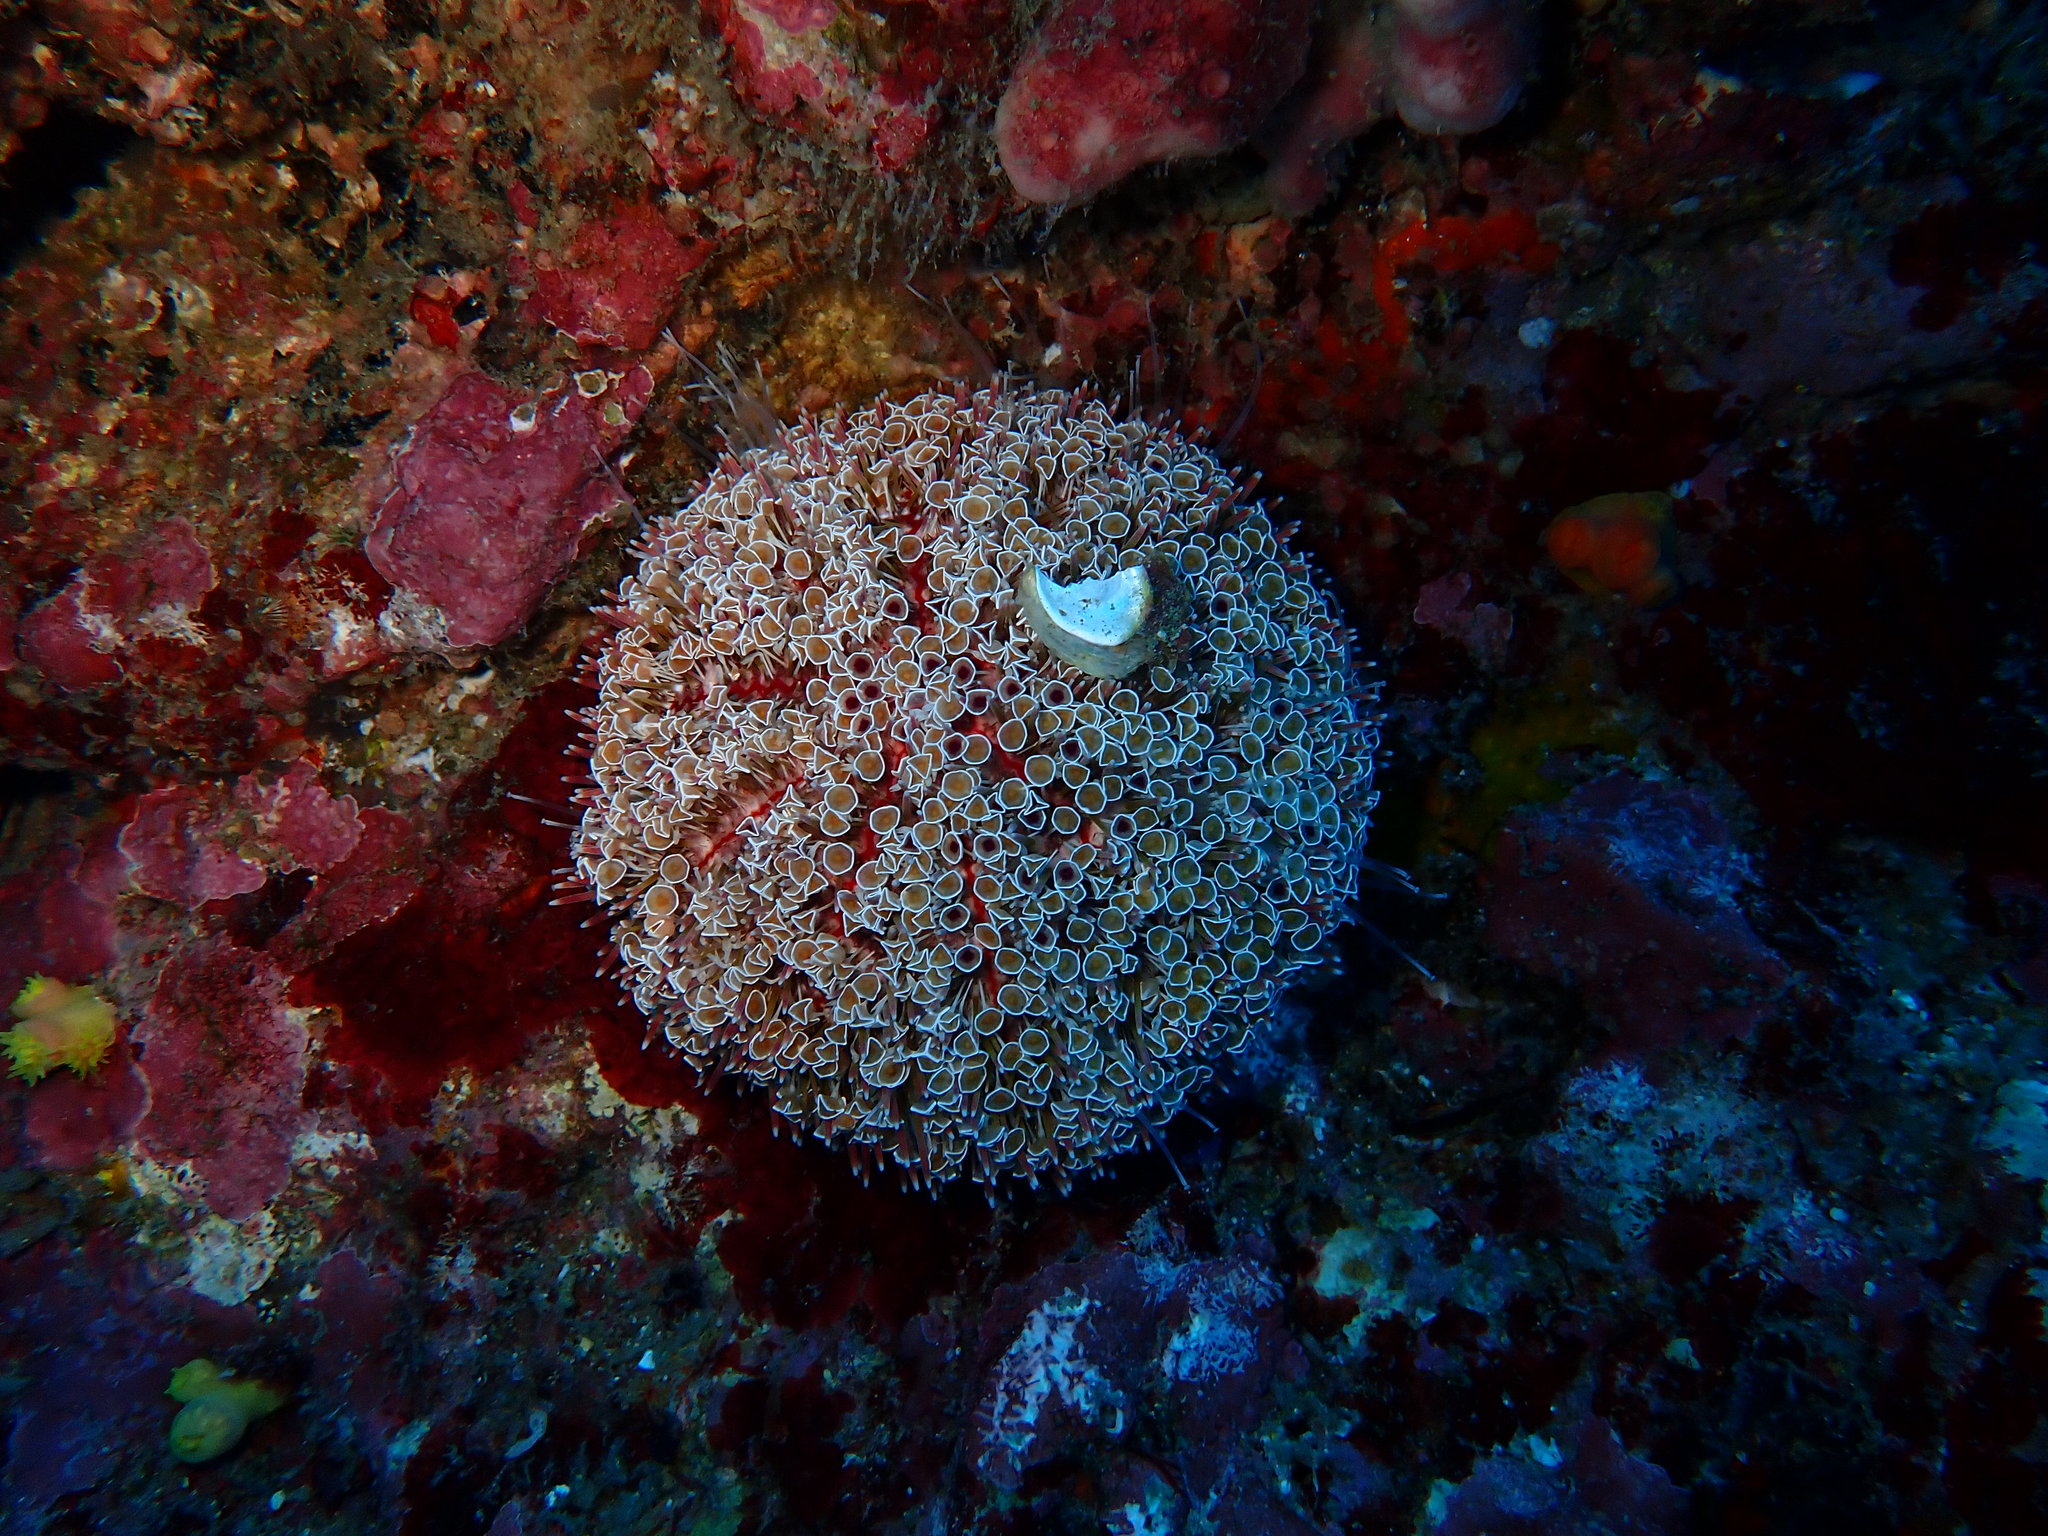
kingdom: Animalia
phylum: Echinodermata
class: Echinoidea
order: Camarodonta
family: Toxopneustidae
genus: Toxopneustes
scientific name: Toxopneustes pileolus
